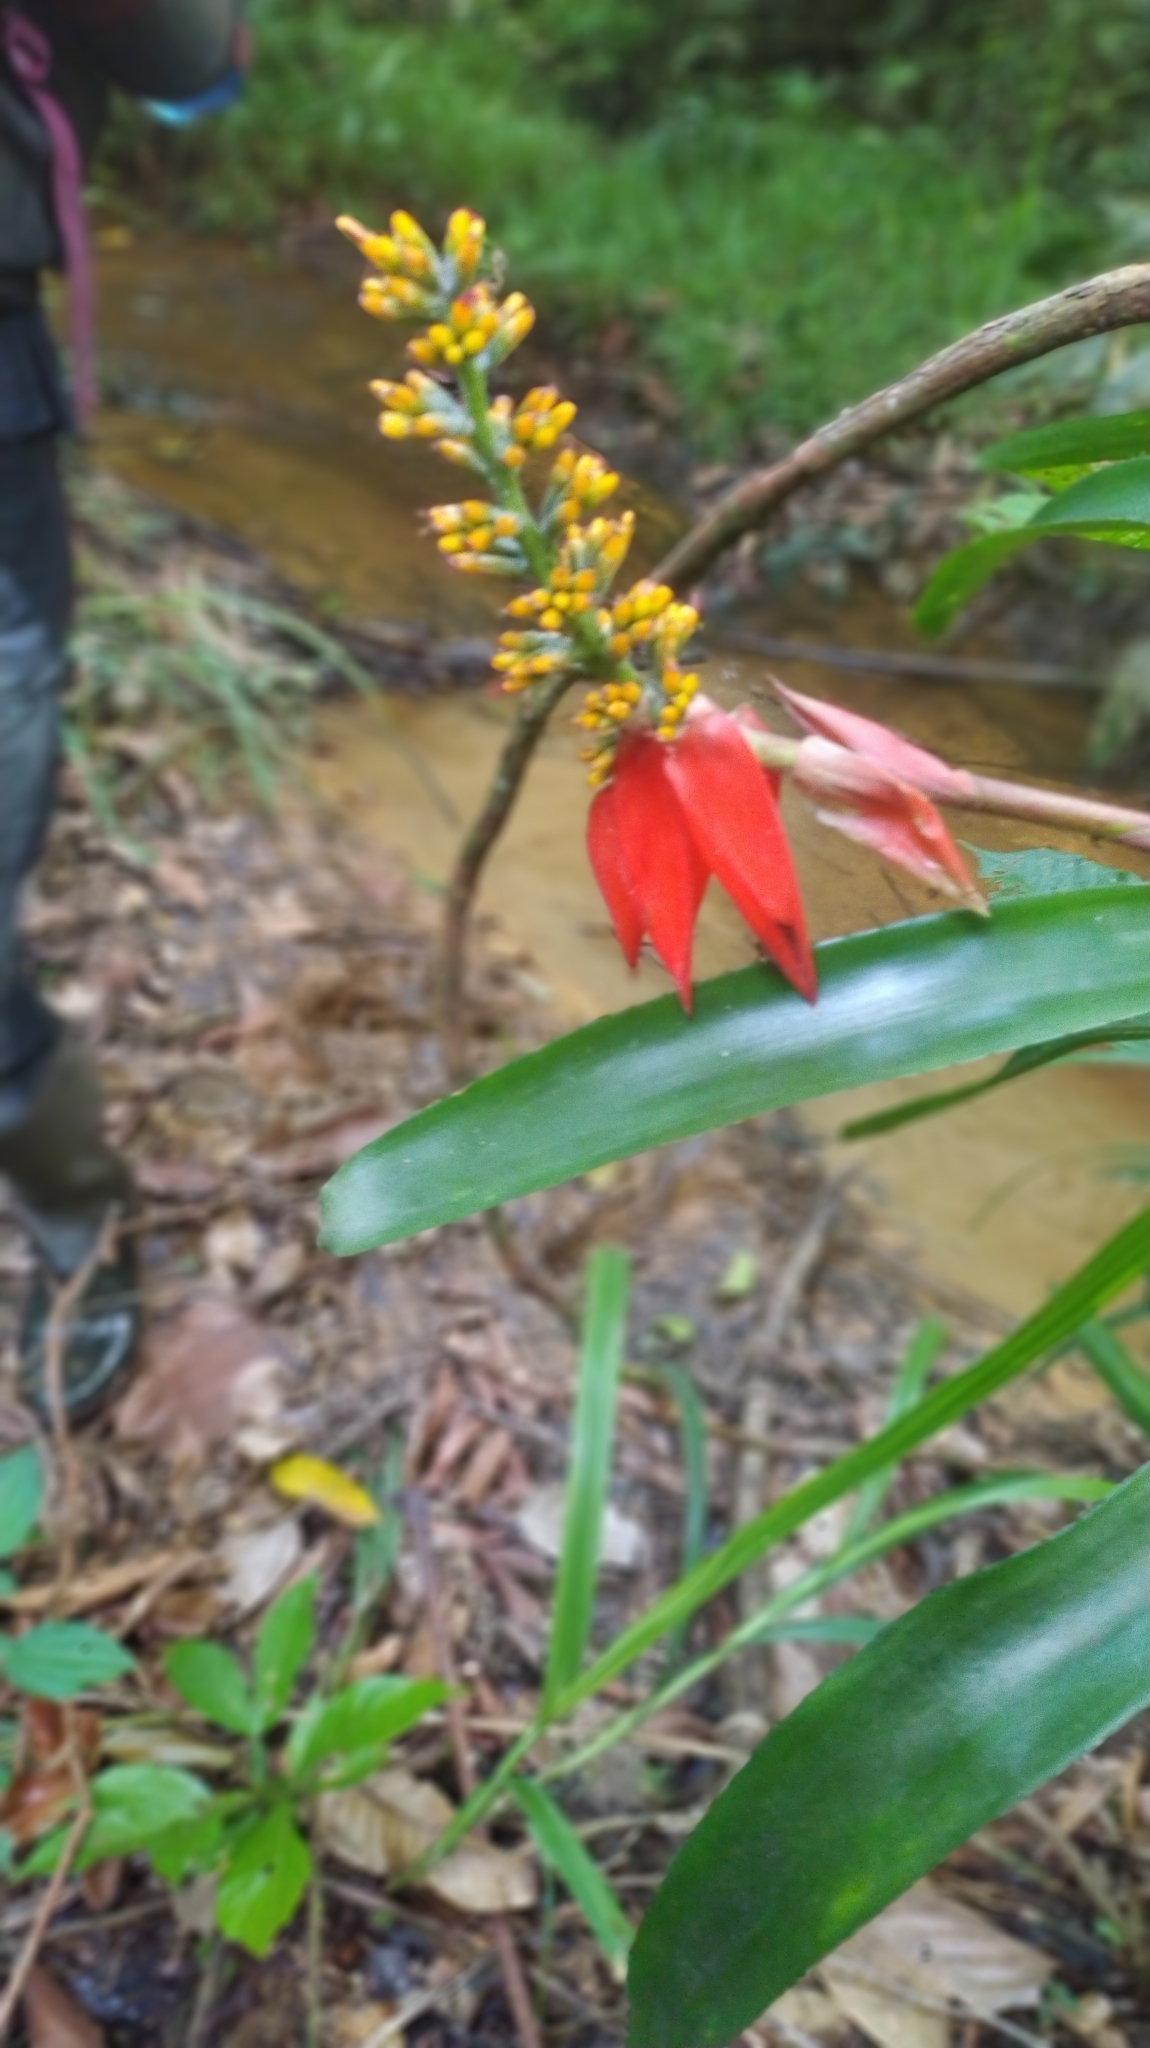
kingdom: Plantae
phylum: Tracheophyta
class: Liliopsida
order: Poales
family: Bromeliaceae
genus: Aechmea
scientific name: Aechmea mertensii
